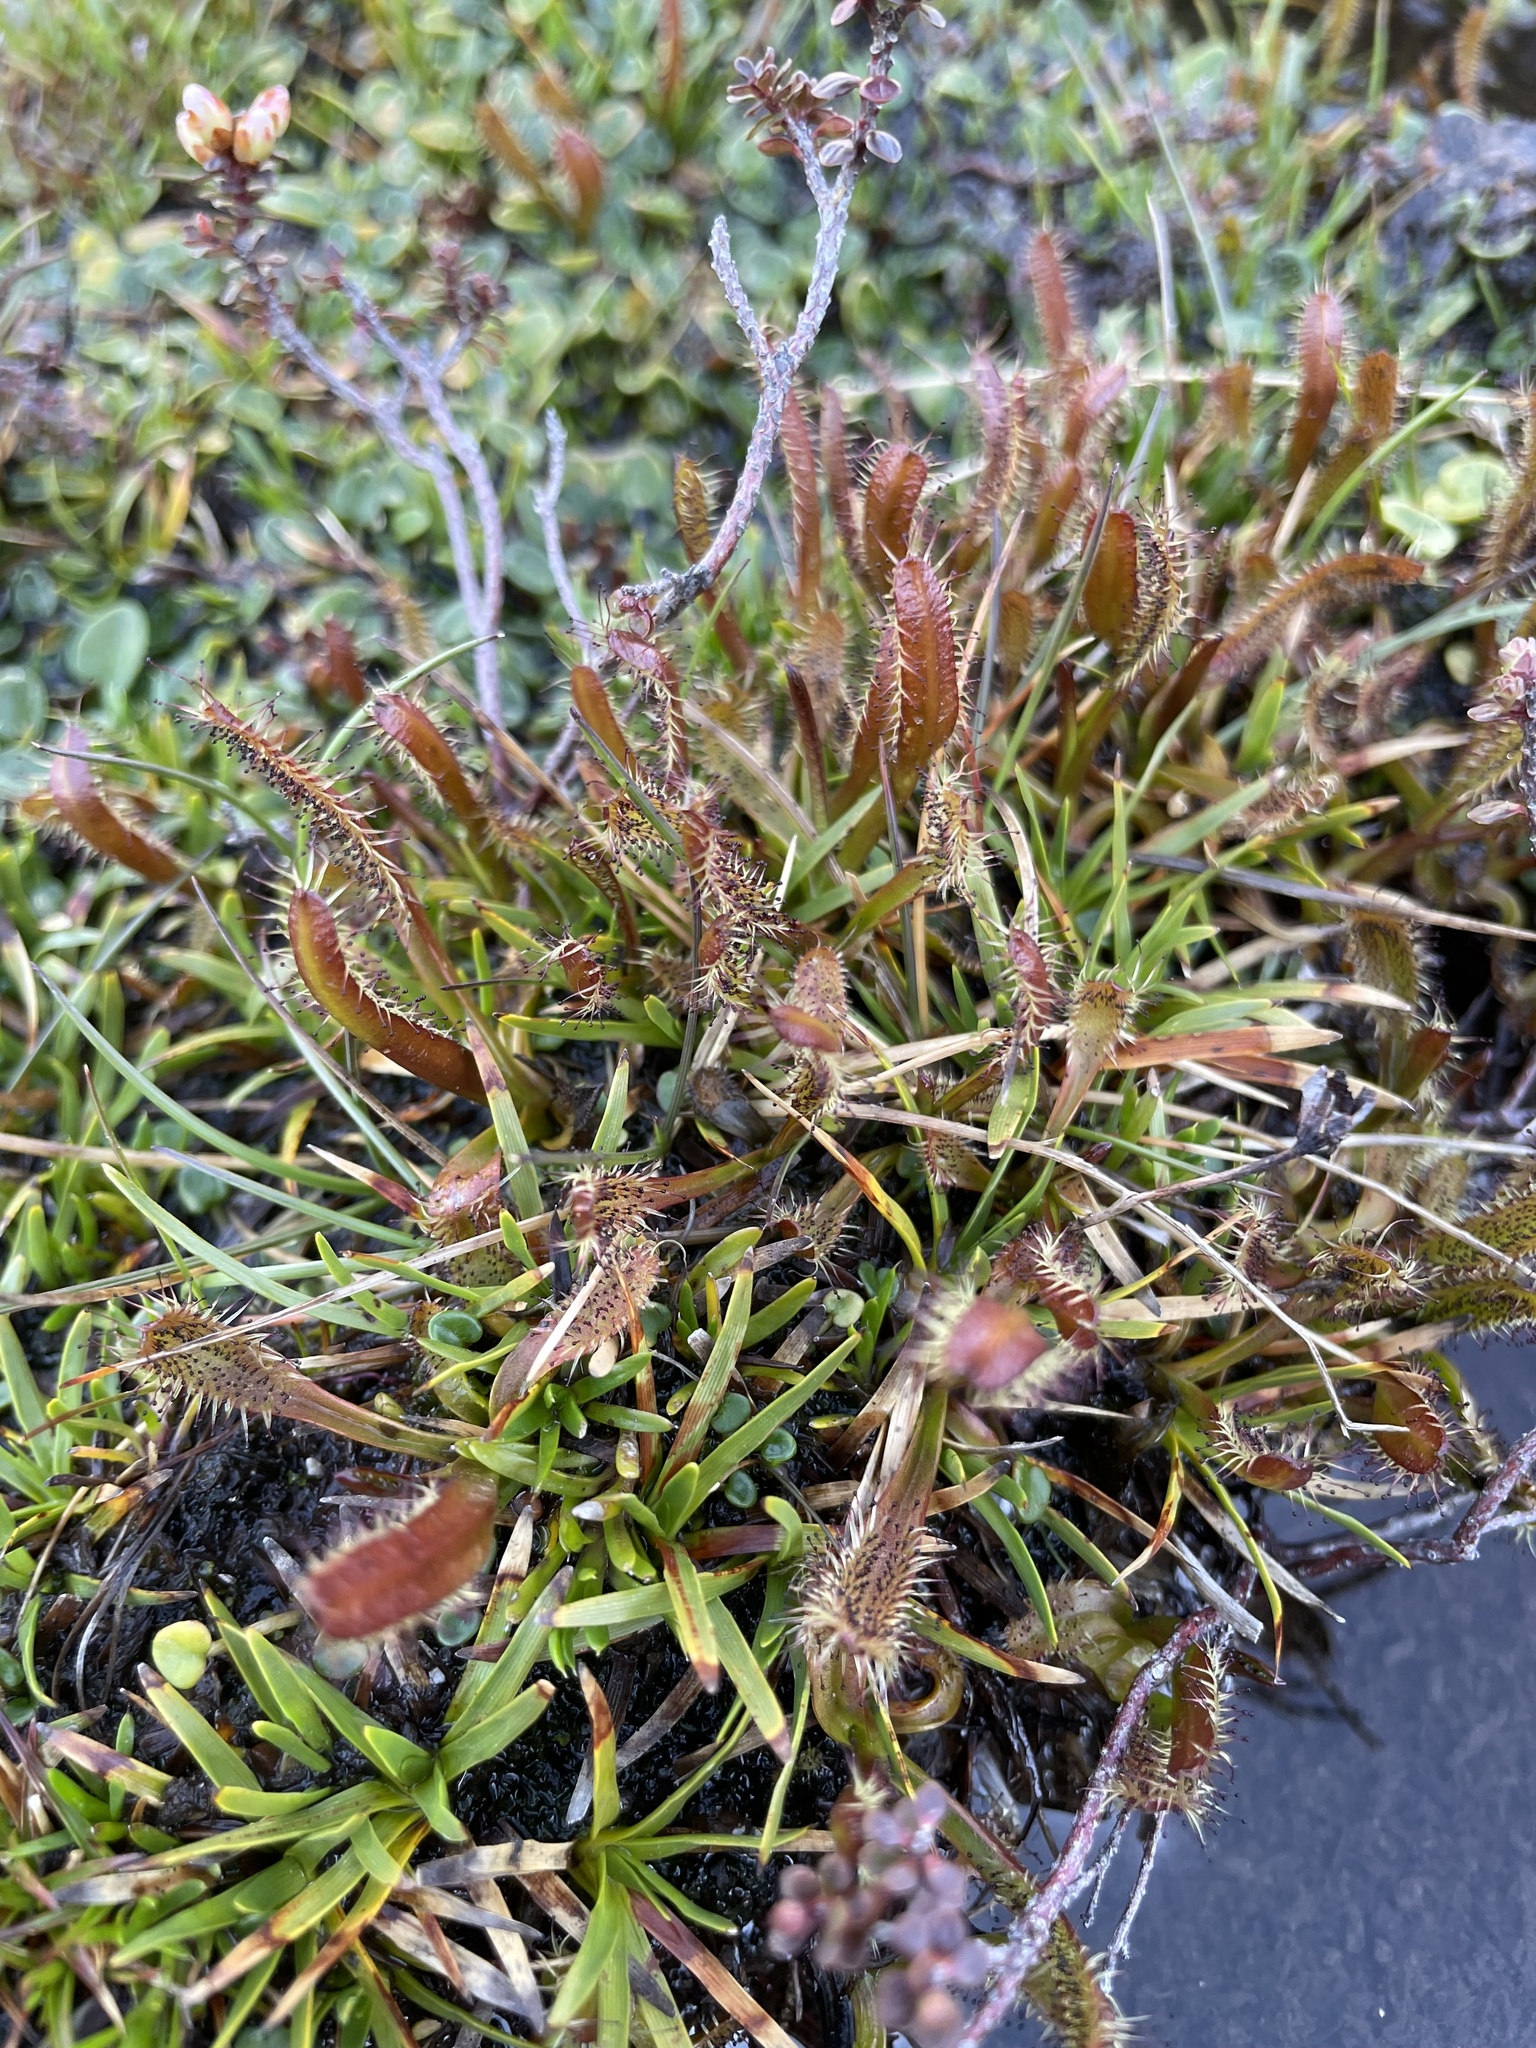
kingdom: Plantae
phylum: Tracheophyta
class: Magnoliopsida
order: Caryophyllales
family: Droseraceae
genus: Drosera
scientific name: Drosera arcturi
